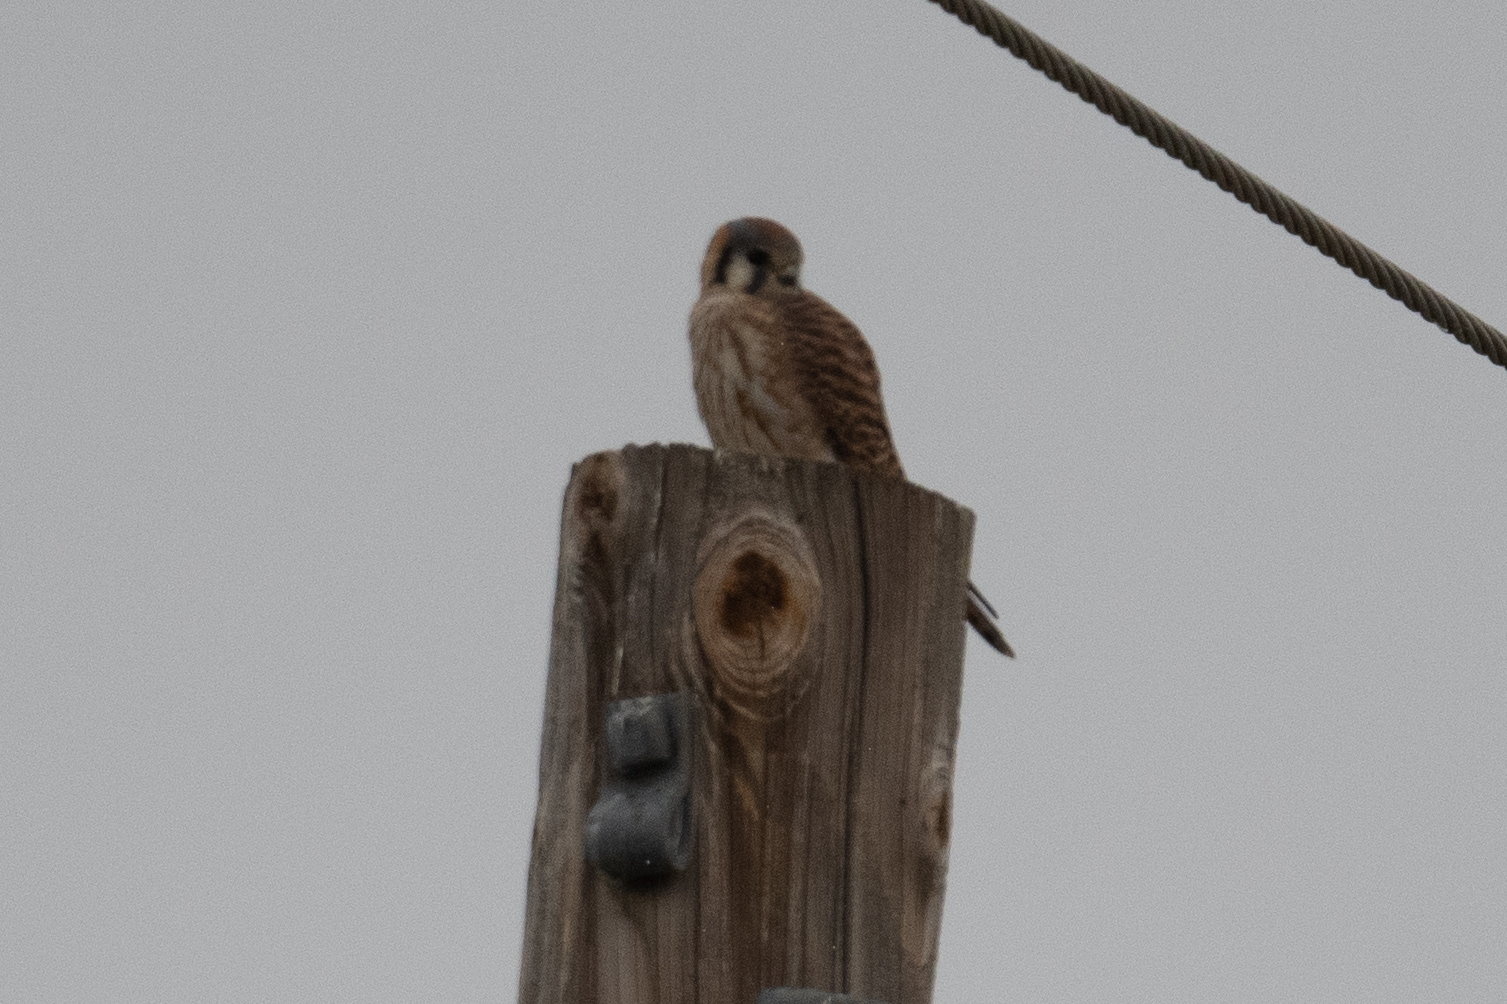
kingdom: Animalia
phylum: Chordata
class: Aves
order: Falconiformes
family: Falconidae
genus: Falco
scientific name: Falco sparverius
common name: American kestrel
